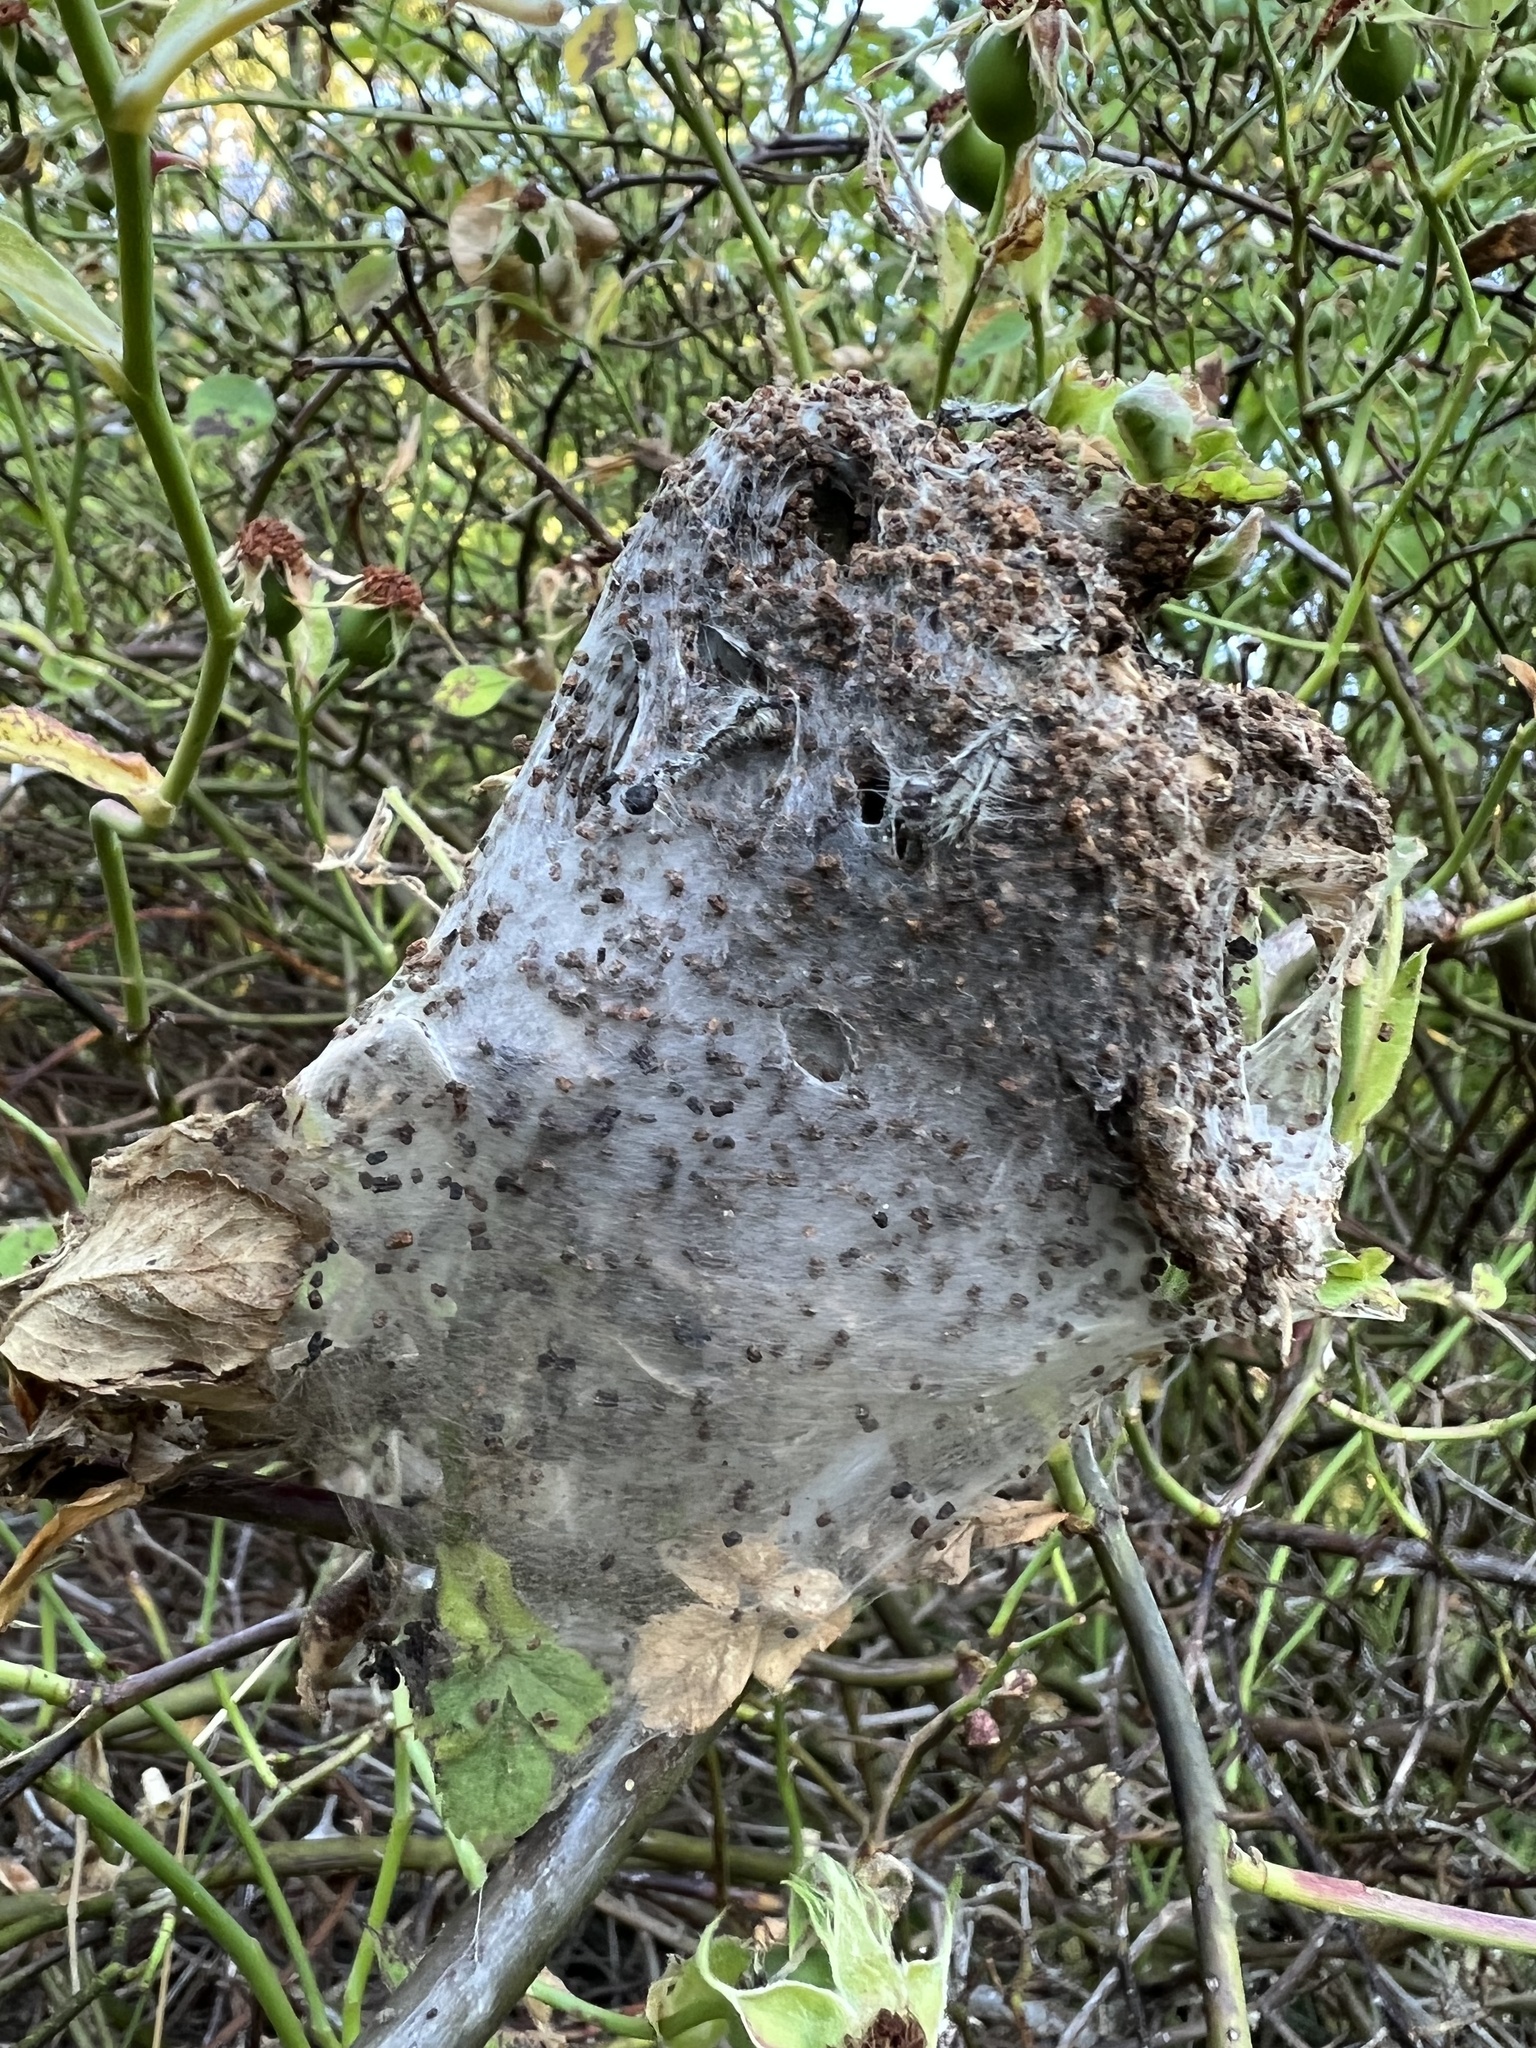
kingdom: Animalia
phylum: Arthropoda
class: Insecta
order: Lepidoptera
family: Lasiocampidae
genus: Malacosoma
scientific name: Malacosoma californica
